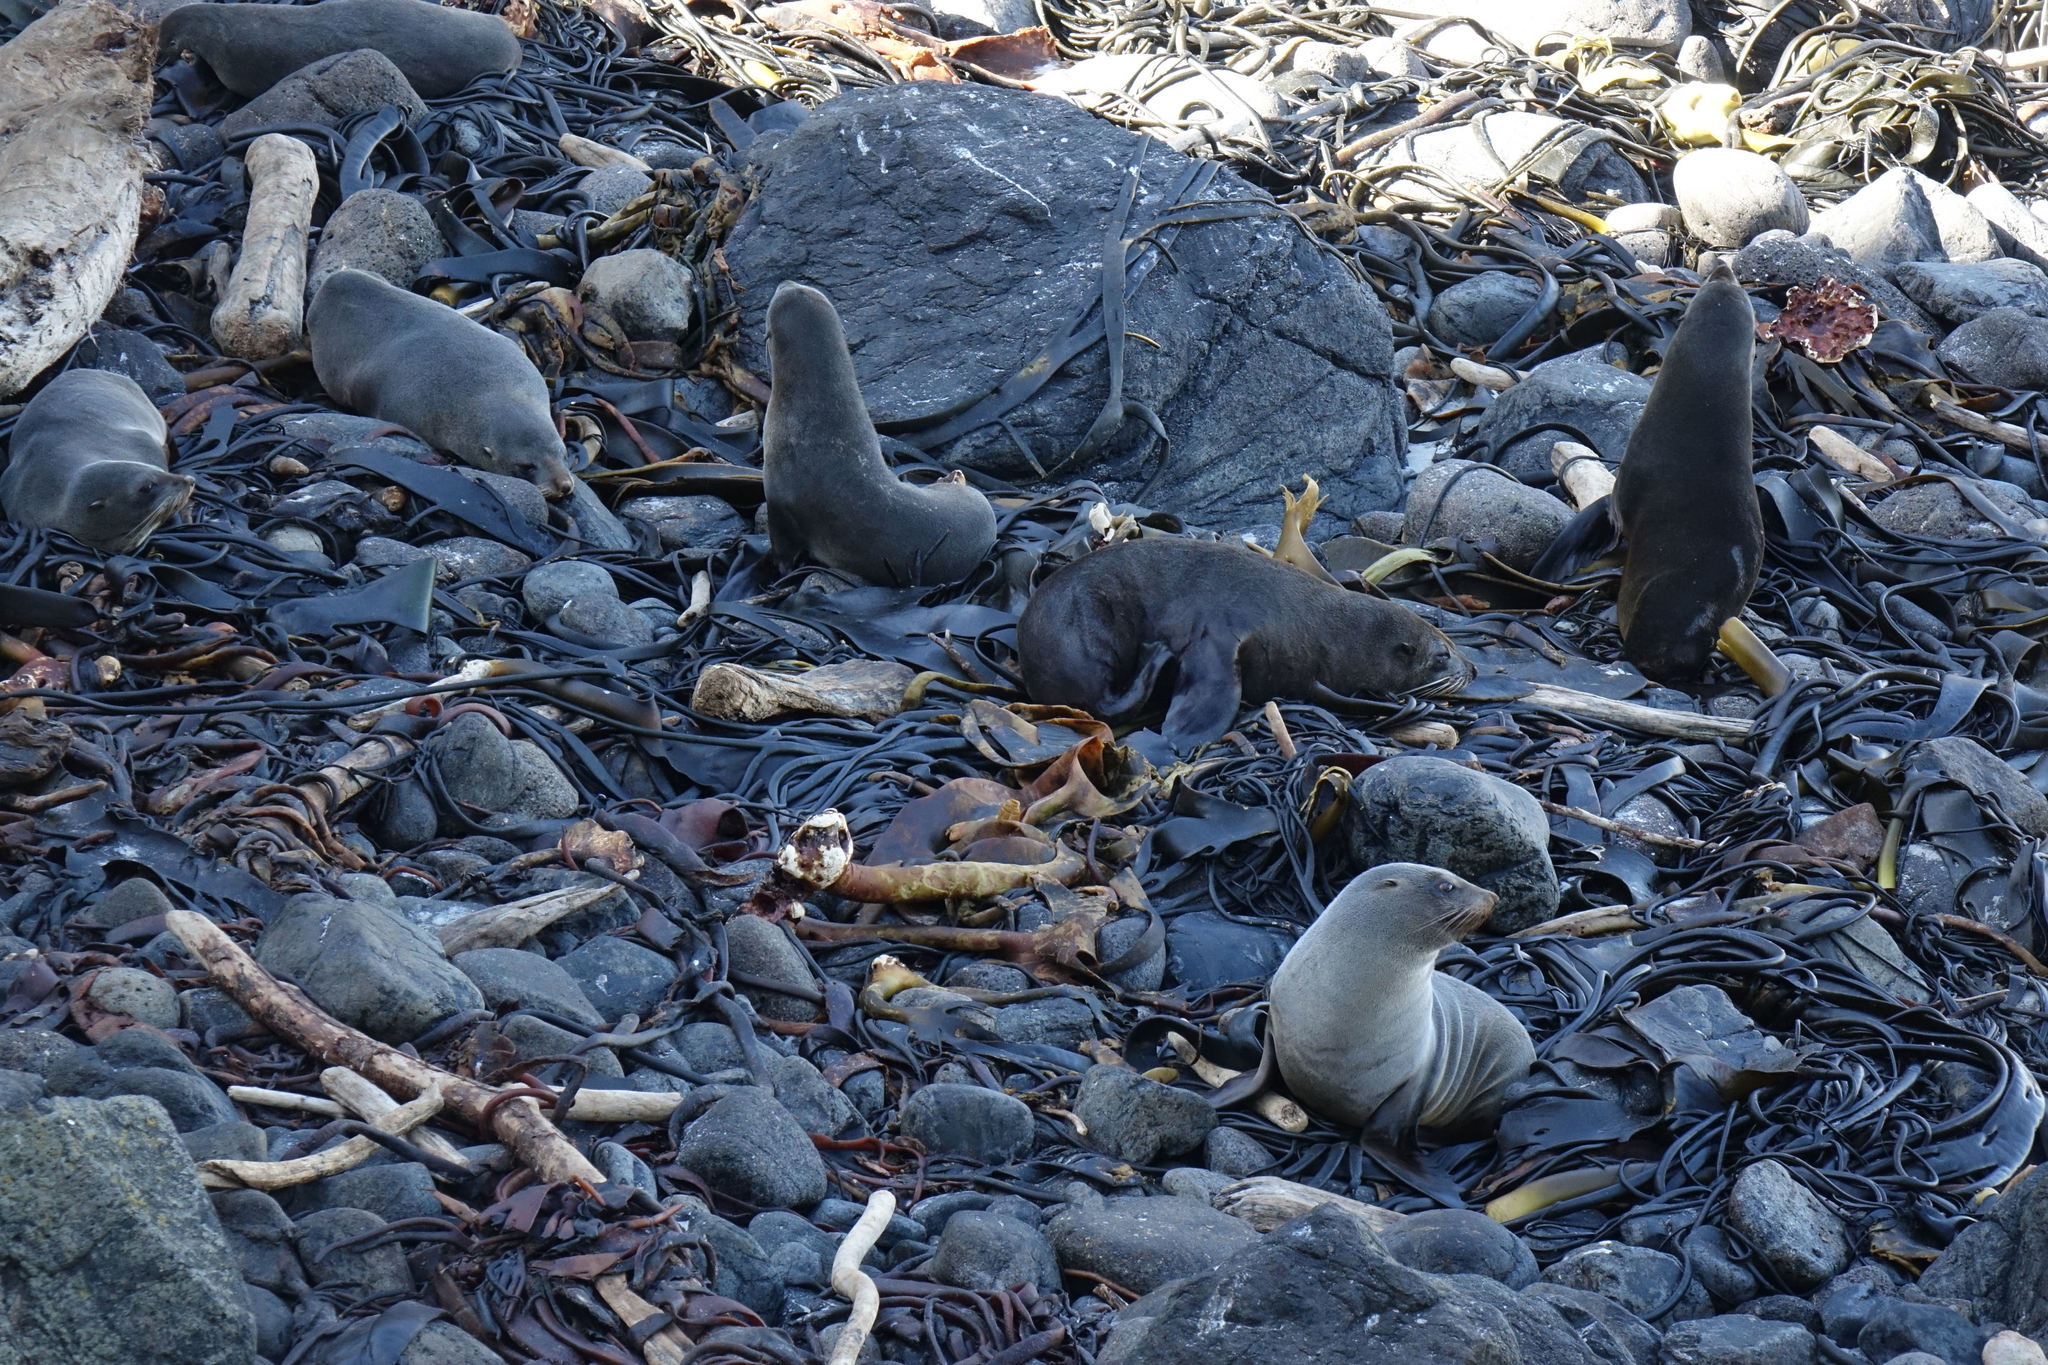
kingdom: Animalia
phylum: Chordata
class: Mammalia
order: Carnivora
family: Otariidae
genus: Arctocephalus
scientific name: Arctocephalus forsteri
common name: New zealand fur seal
